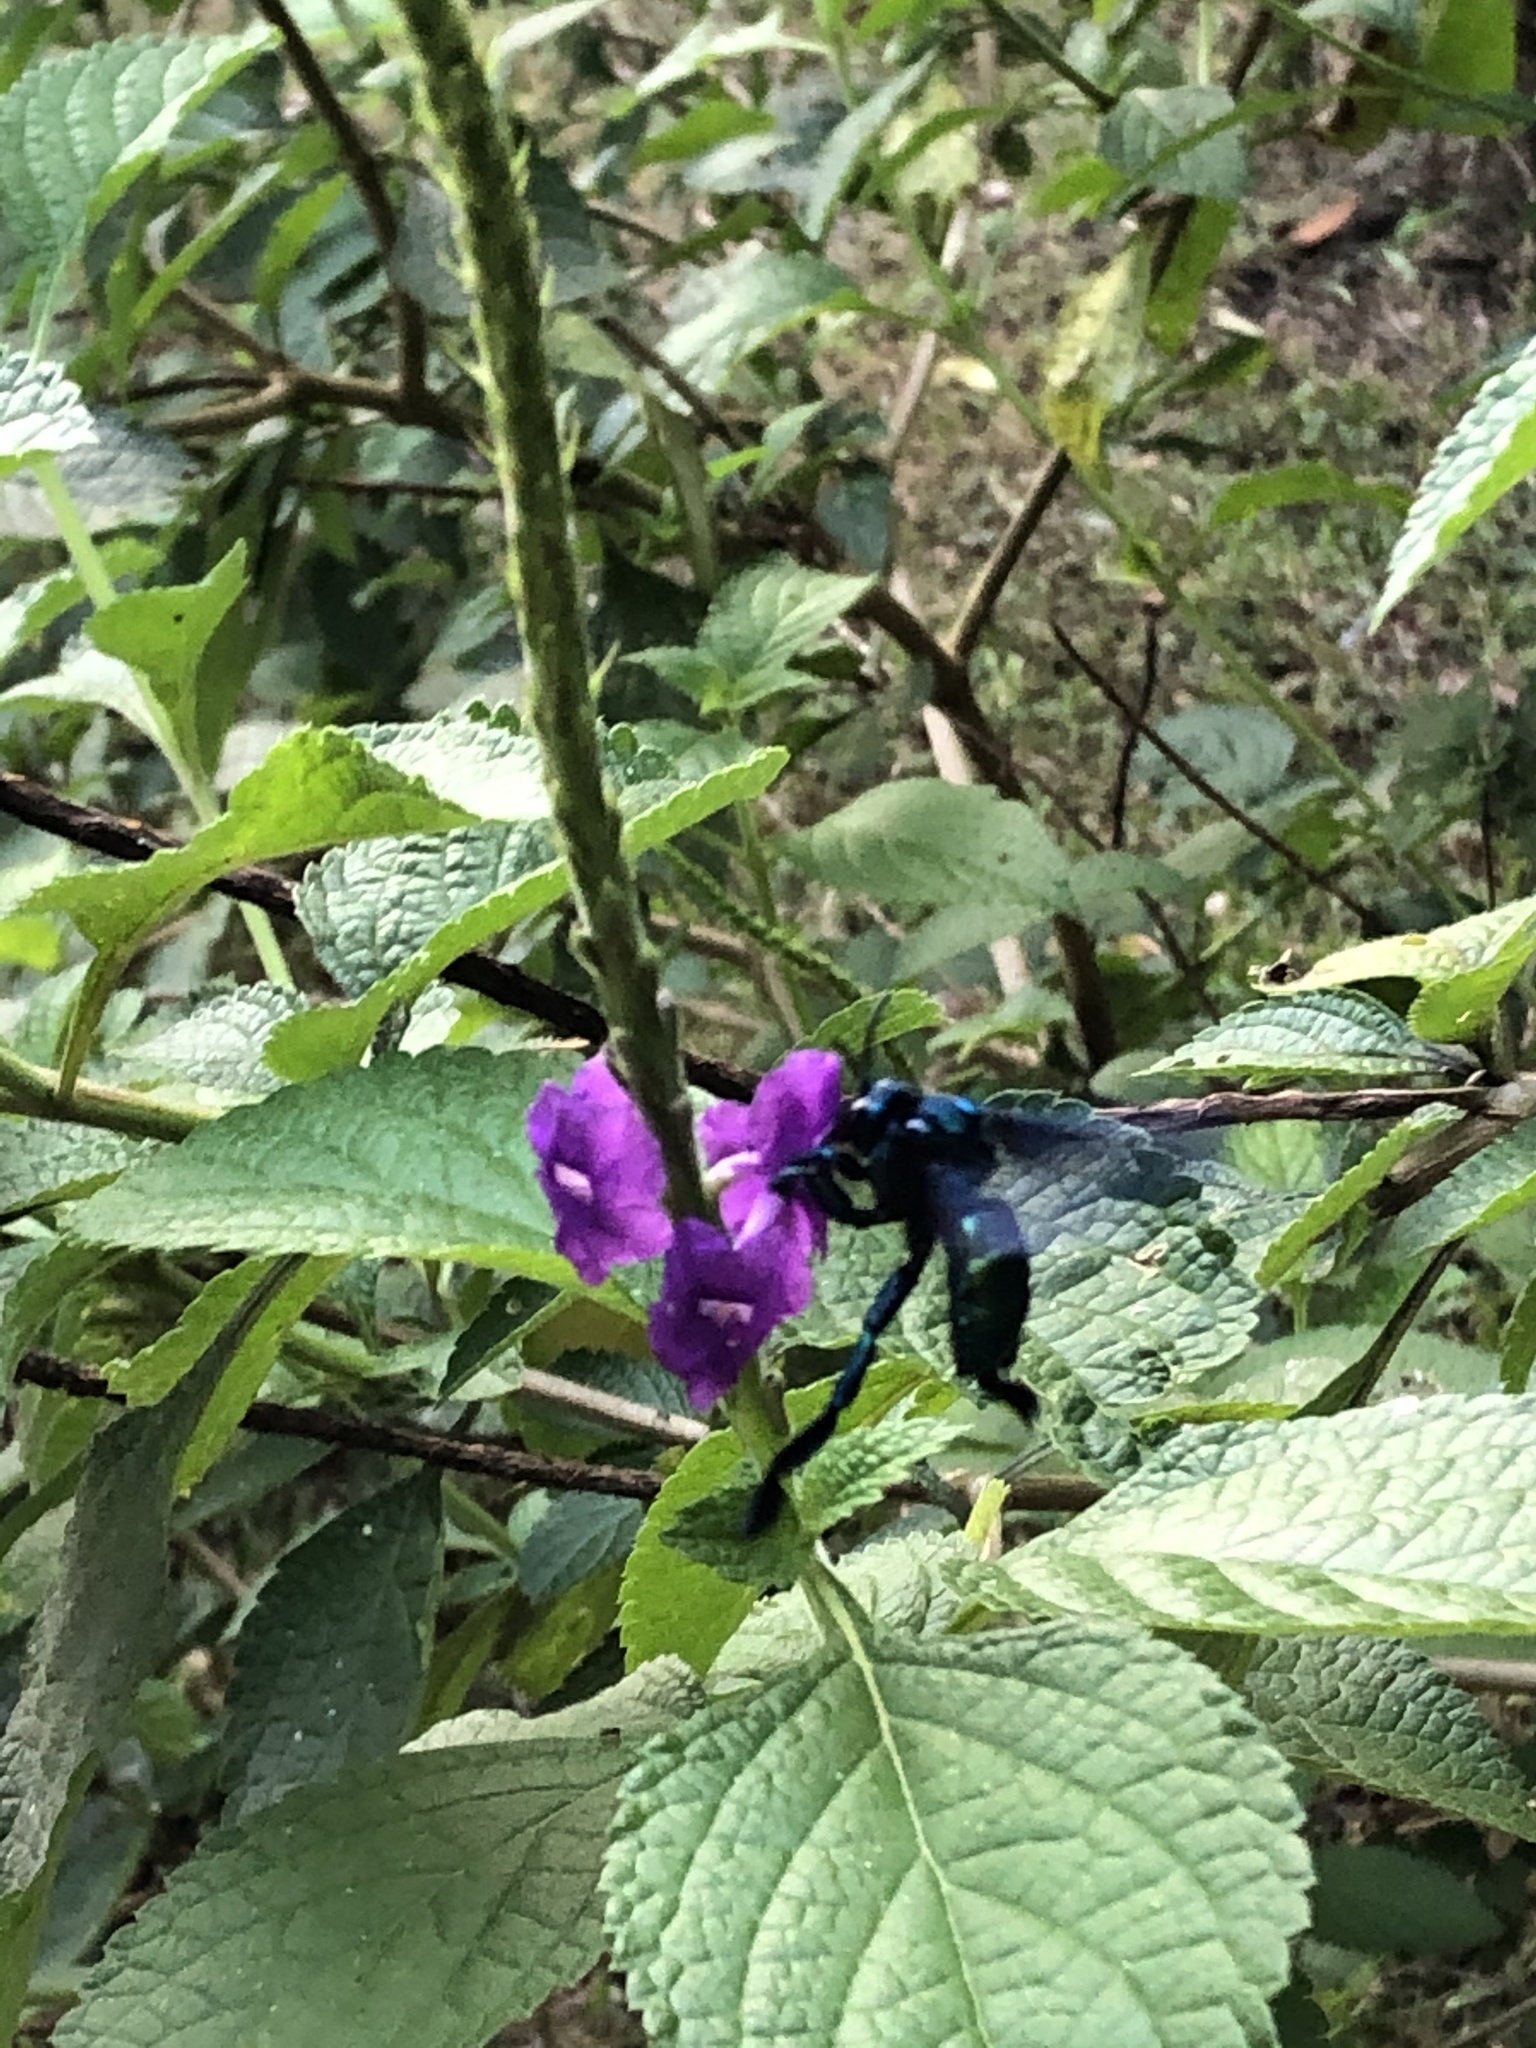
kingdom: Animalia
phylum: Arthropoda
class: Insecta
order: Hymenoptera
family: Apidae
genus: Acanthopus
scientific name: Acanthopus palmatus
